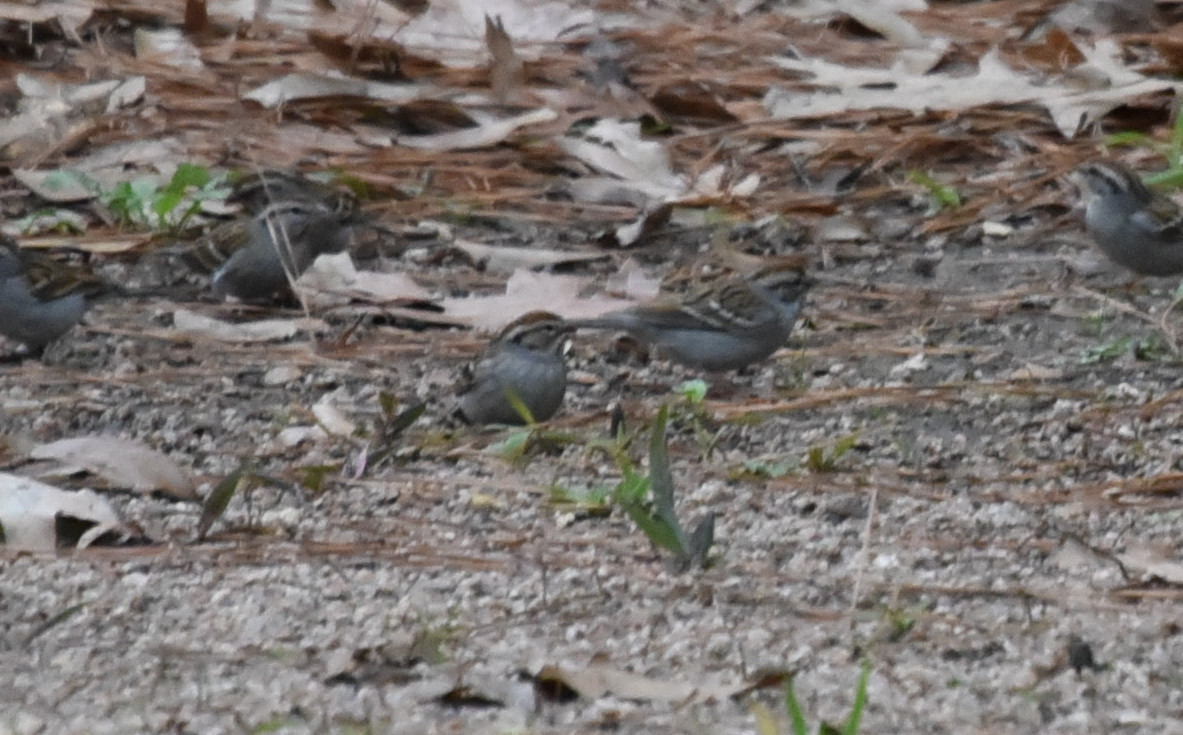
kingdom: Animalia
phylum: Chordata
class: Aves
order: Passeriformes
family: Passerellidae
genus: Spizella
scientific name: Spizella passerina
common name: Chipping sparrow
